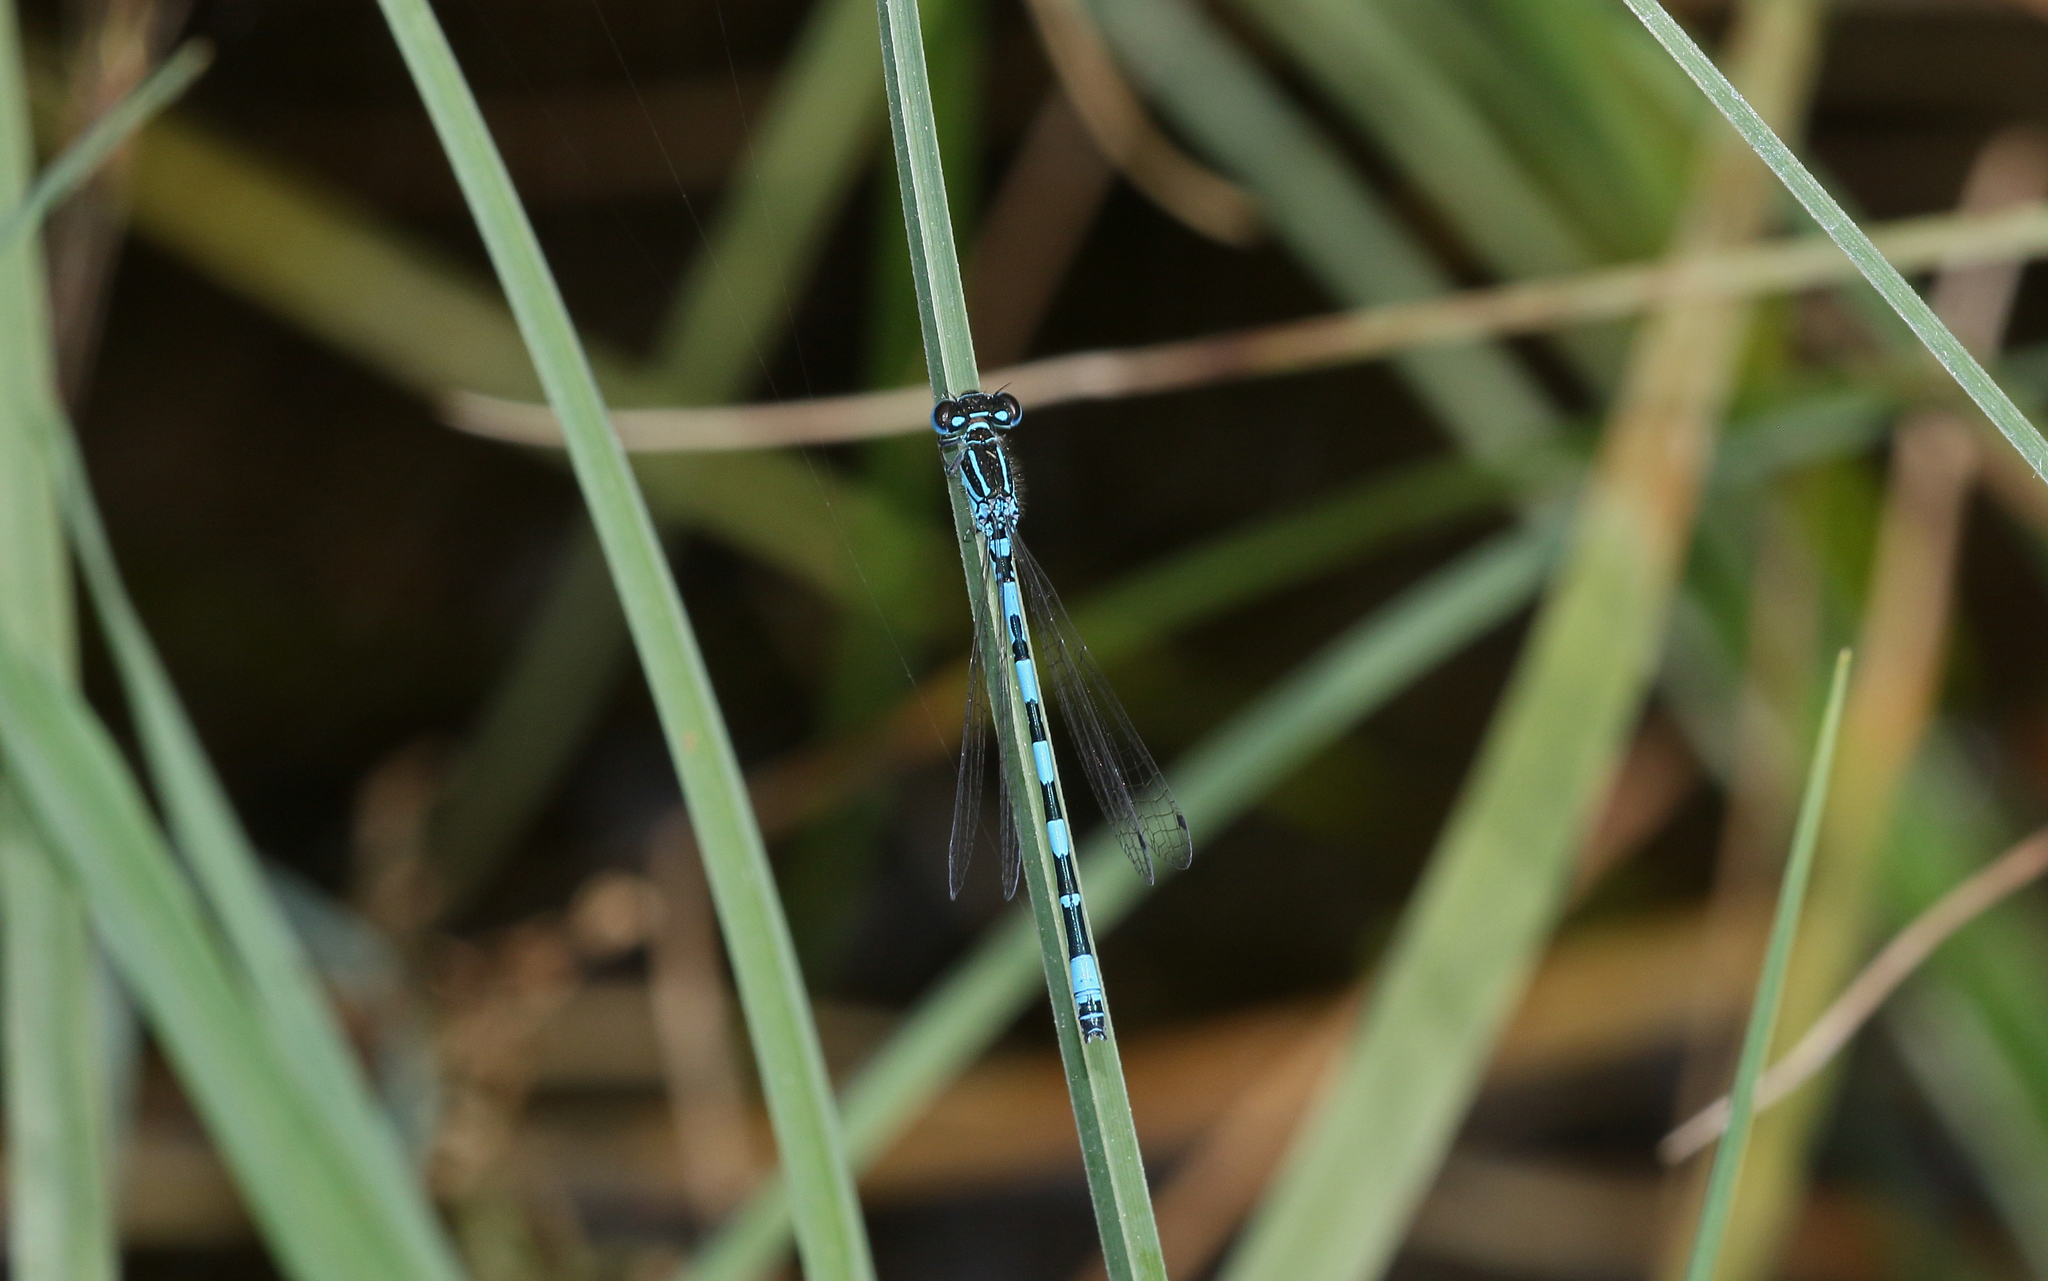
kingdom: Animalia
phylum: Arthropoda
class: Insecta
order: Odonata
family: Coenagrionidae
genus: Coenagrion
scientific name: Coenagrion mercuriale
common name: Southern damselfly
